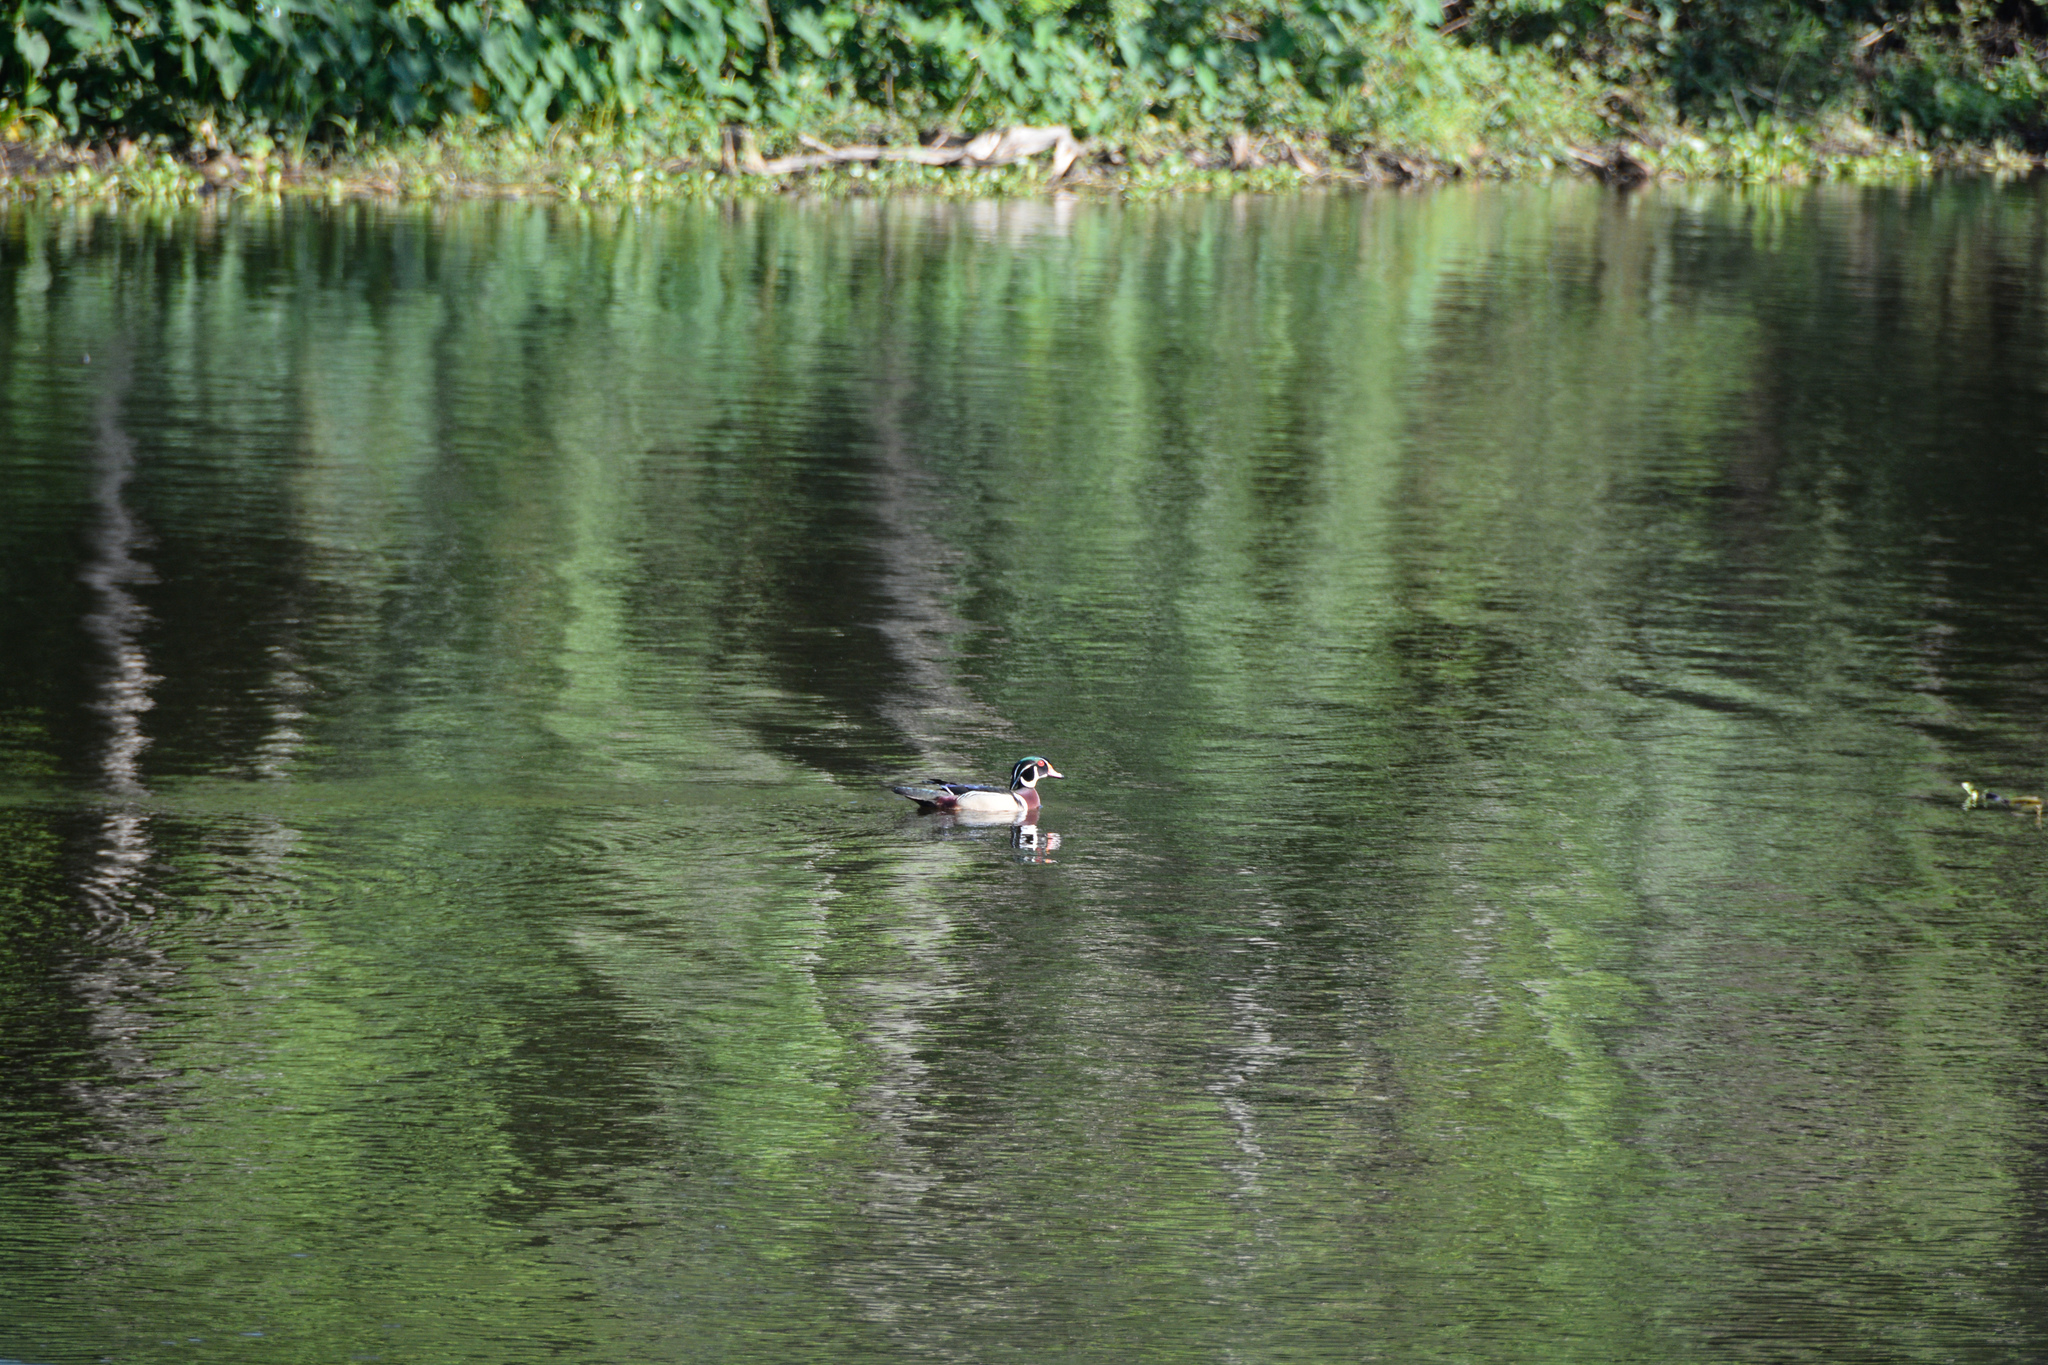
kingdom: Animalia
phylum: Chordata
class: Aves
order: Anseriformes
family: Anatidae
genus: Aix
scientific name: Aix sponsa
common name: Wood duck
